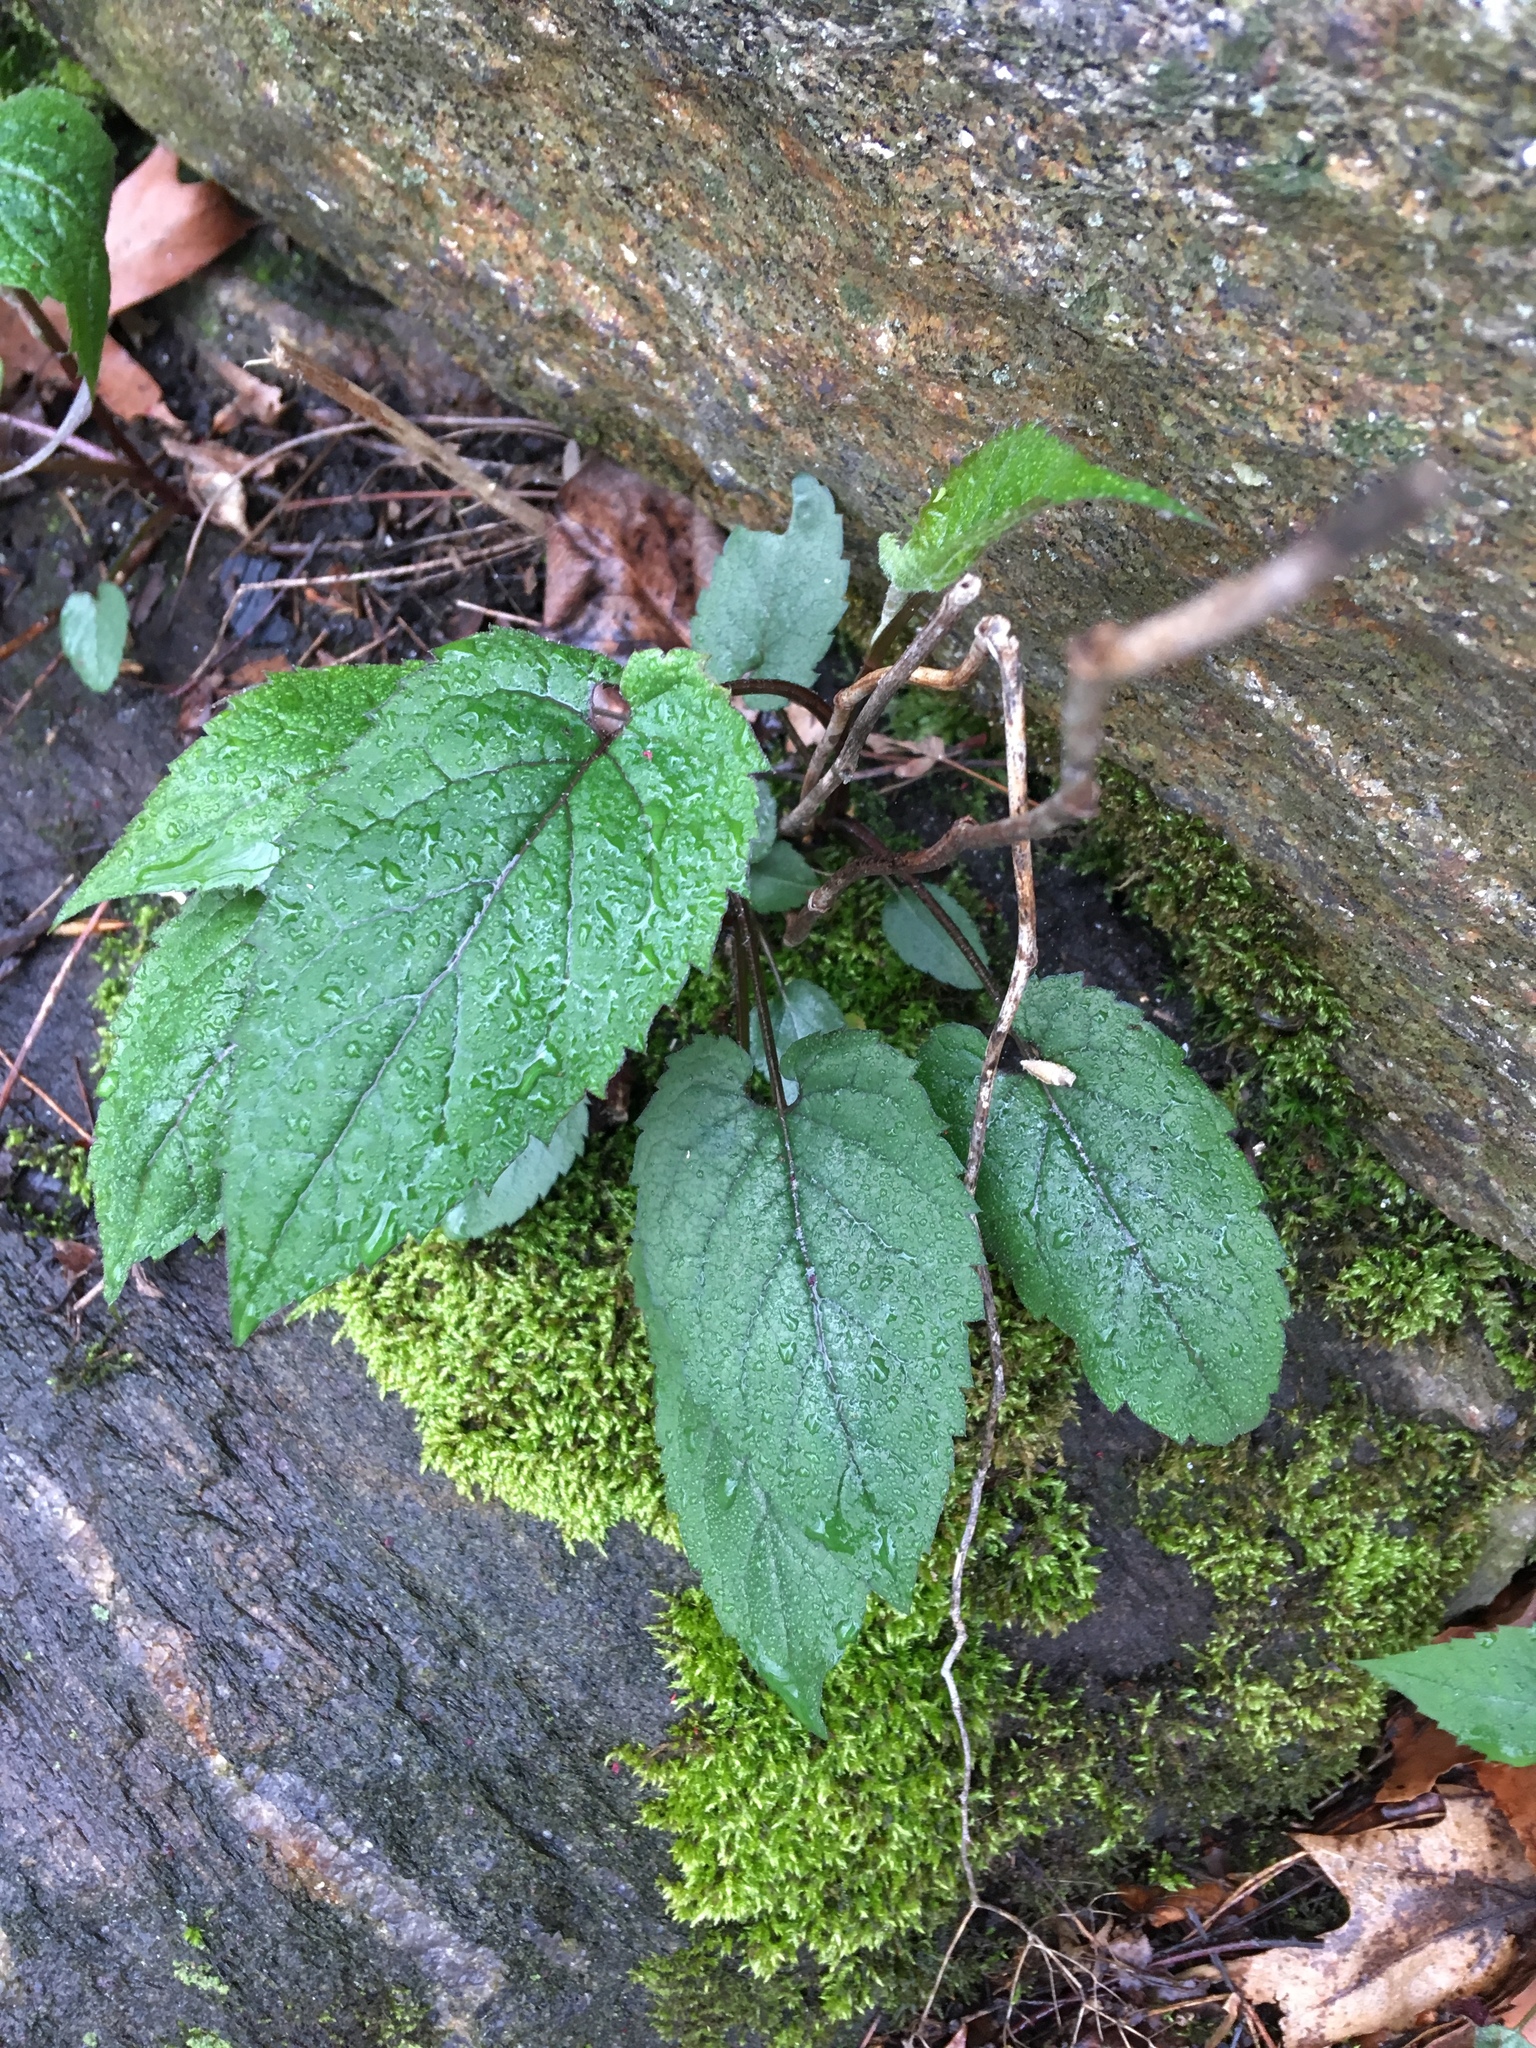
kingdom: Plantae
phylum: Tracheophyta
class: Magnoliopsida
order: Asterales
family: Asteraceae
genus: Eurybia
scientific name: Eurybia divaricata
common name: White wood aster
